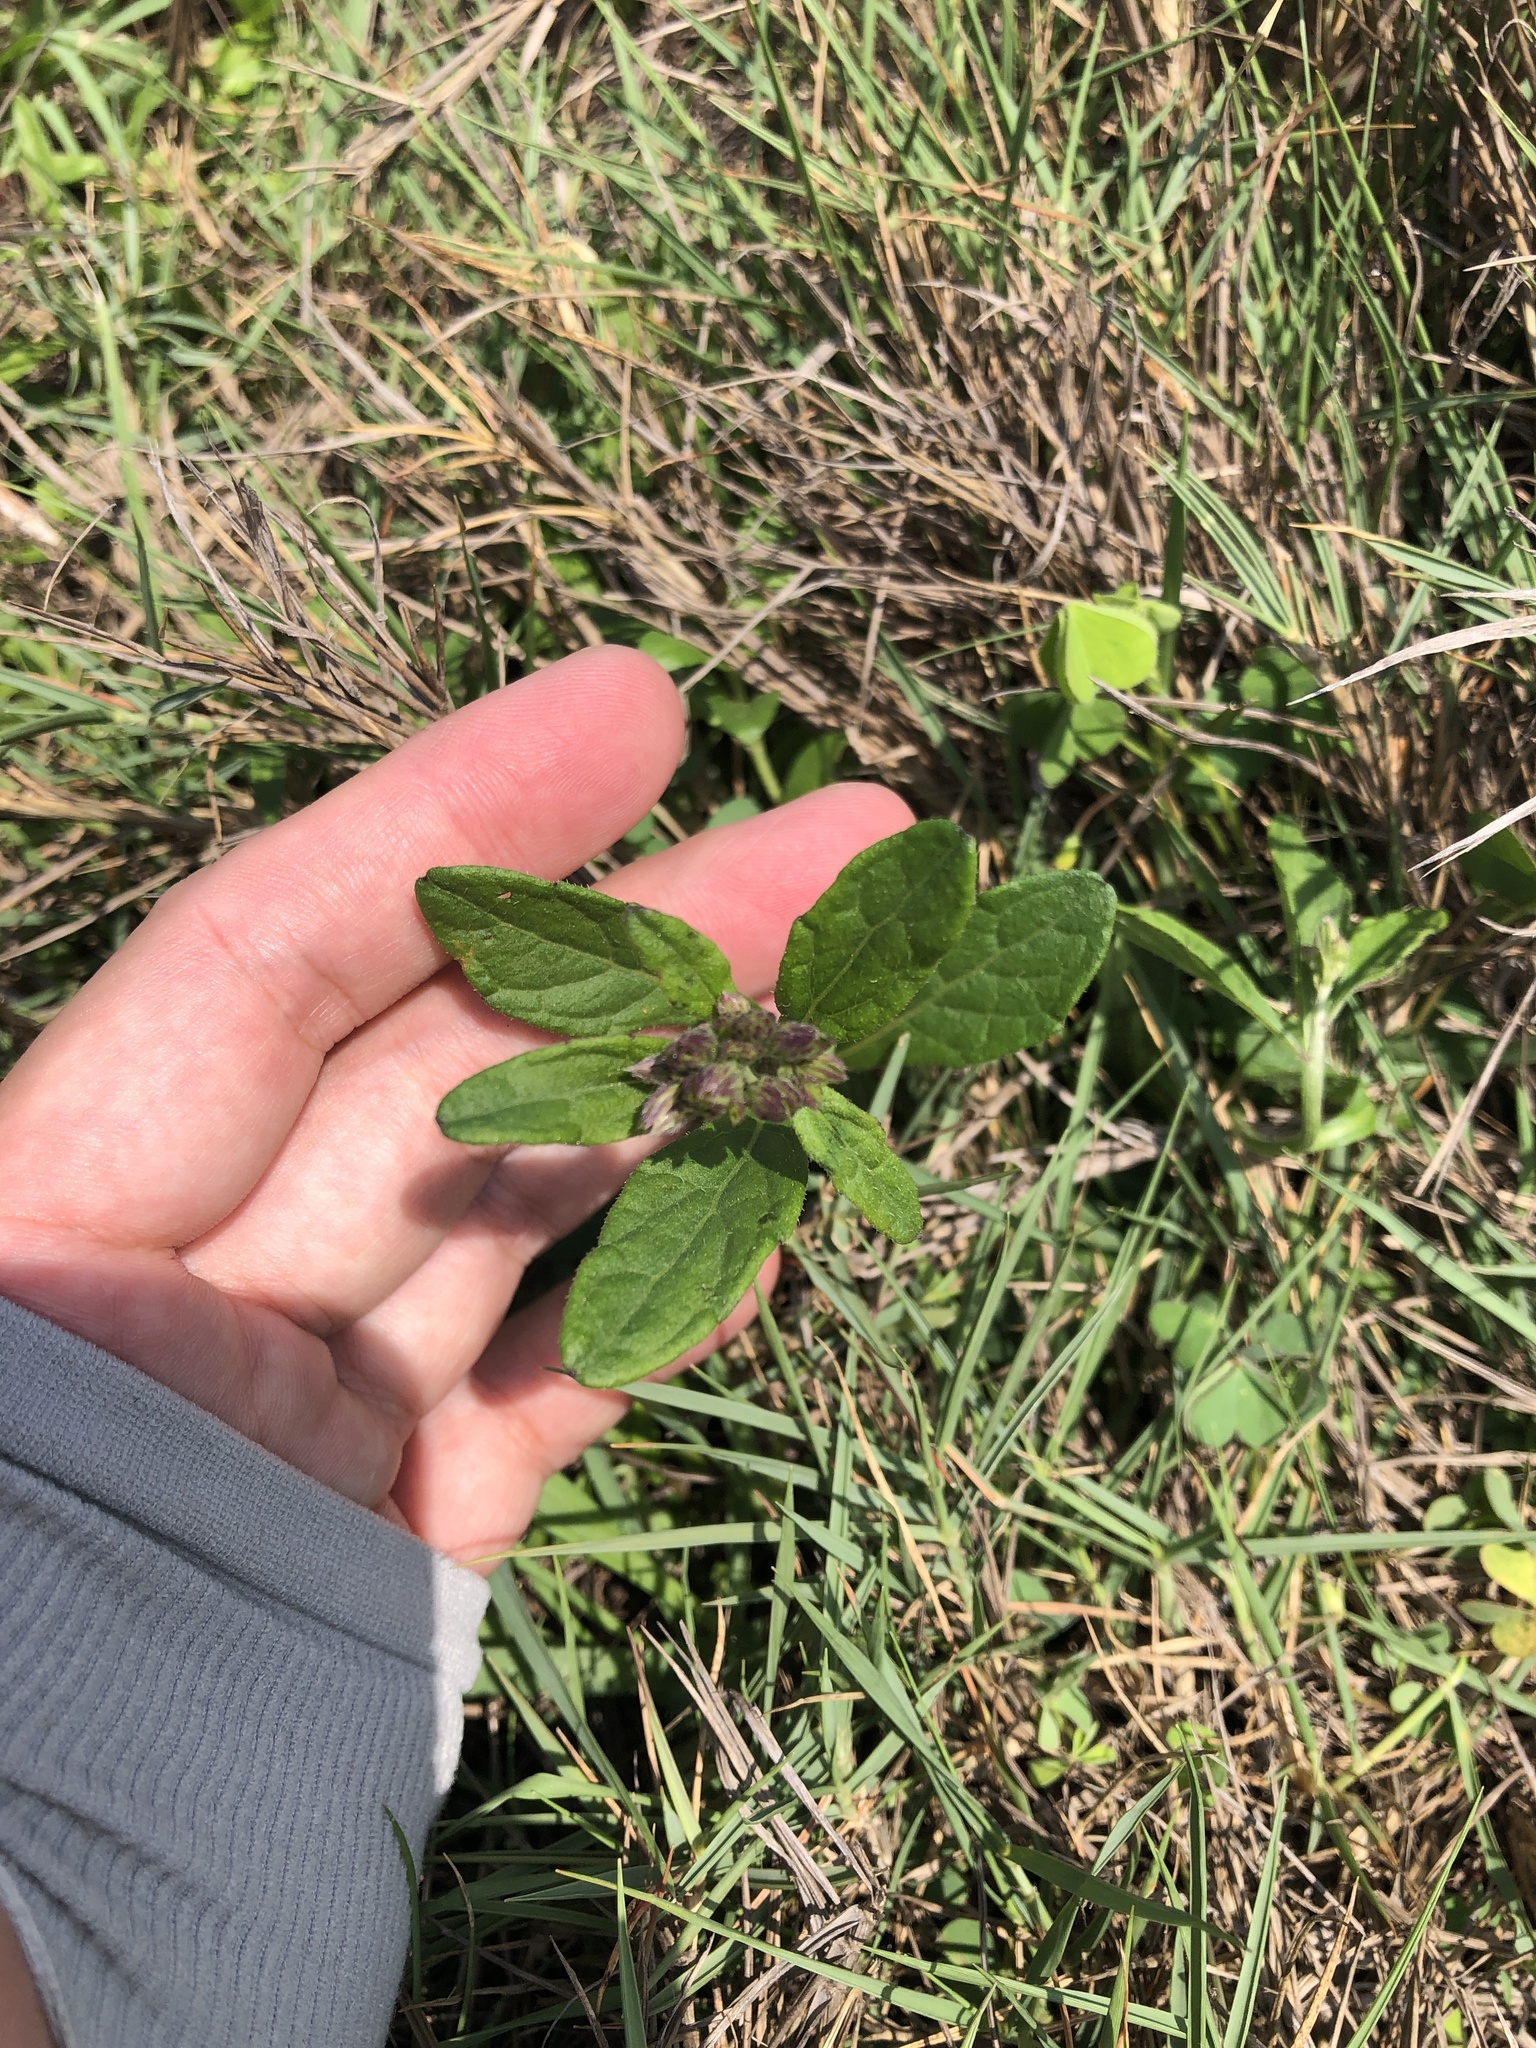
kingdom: Plantae
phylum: Tracheophyta
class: Magnoliopsida
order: Asterales
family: Asteraceae
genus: Cyanthillium
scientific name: Cyanthillium cinereum
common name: Little ironweed
